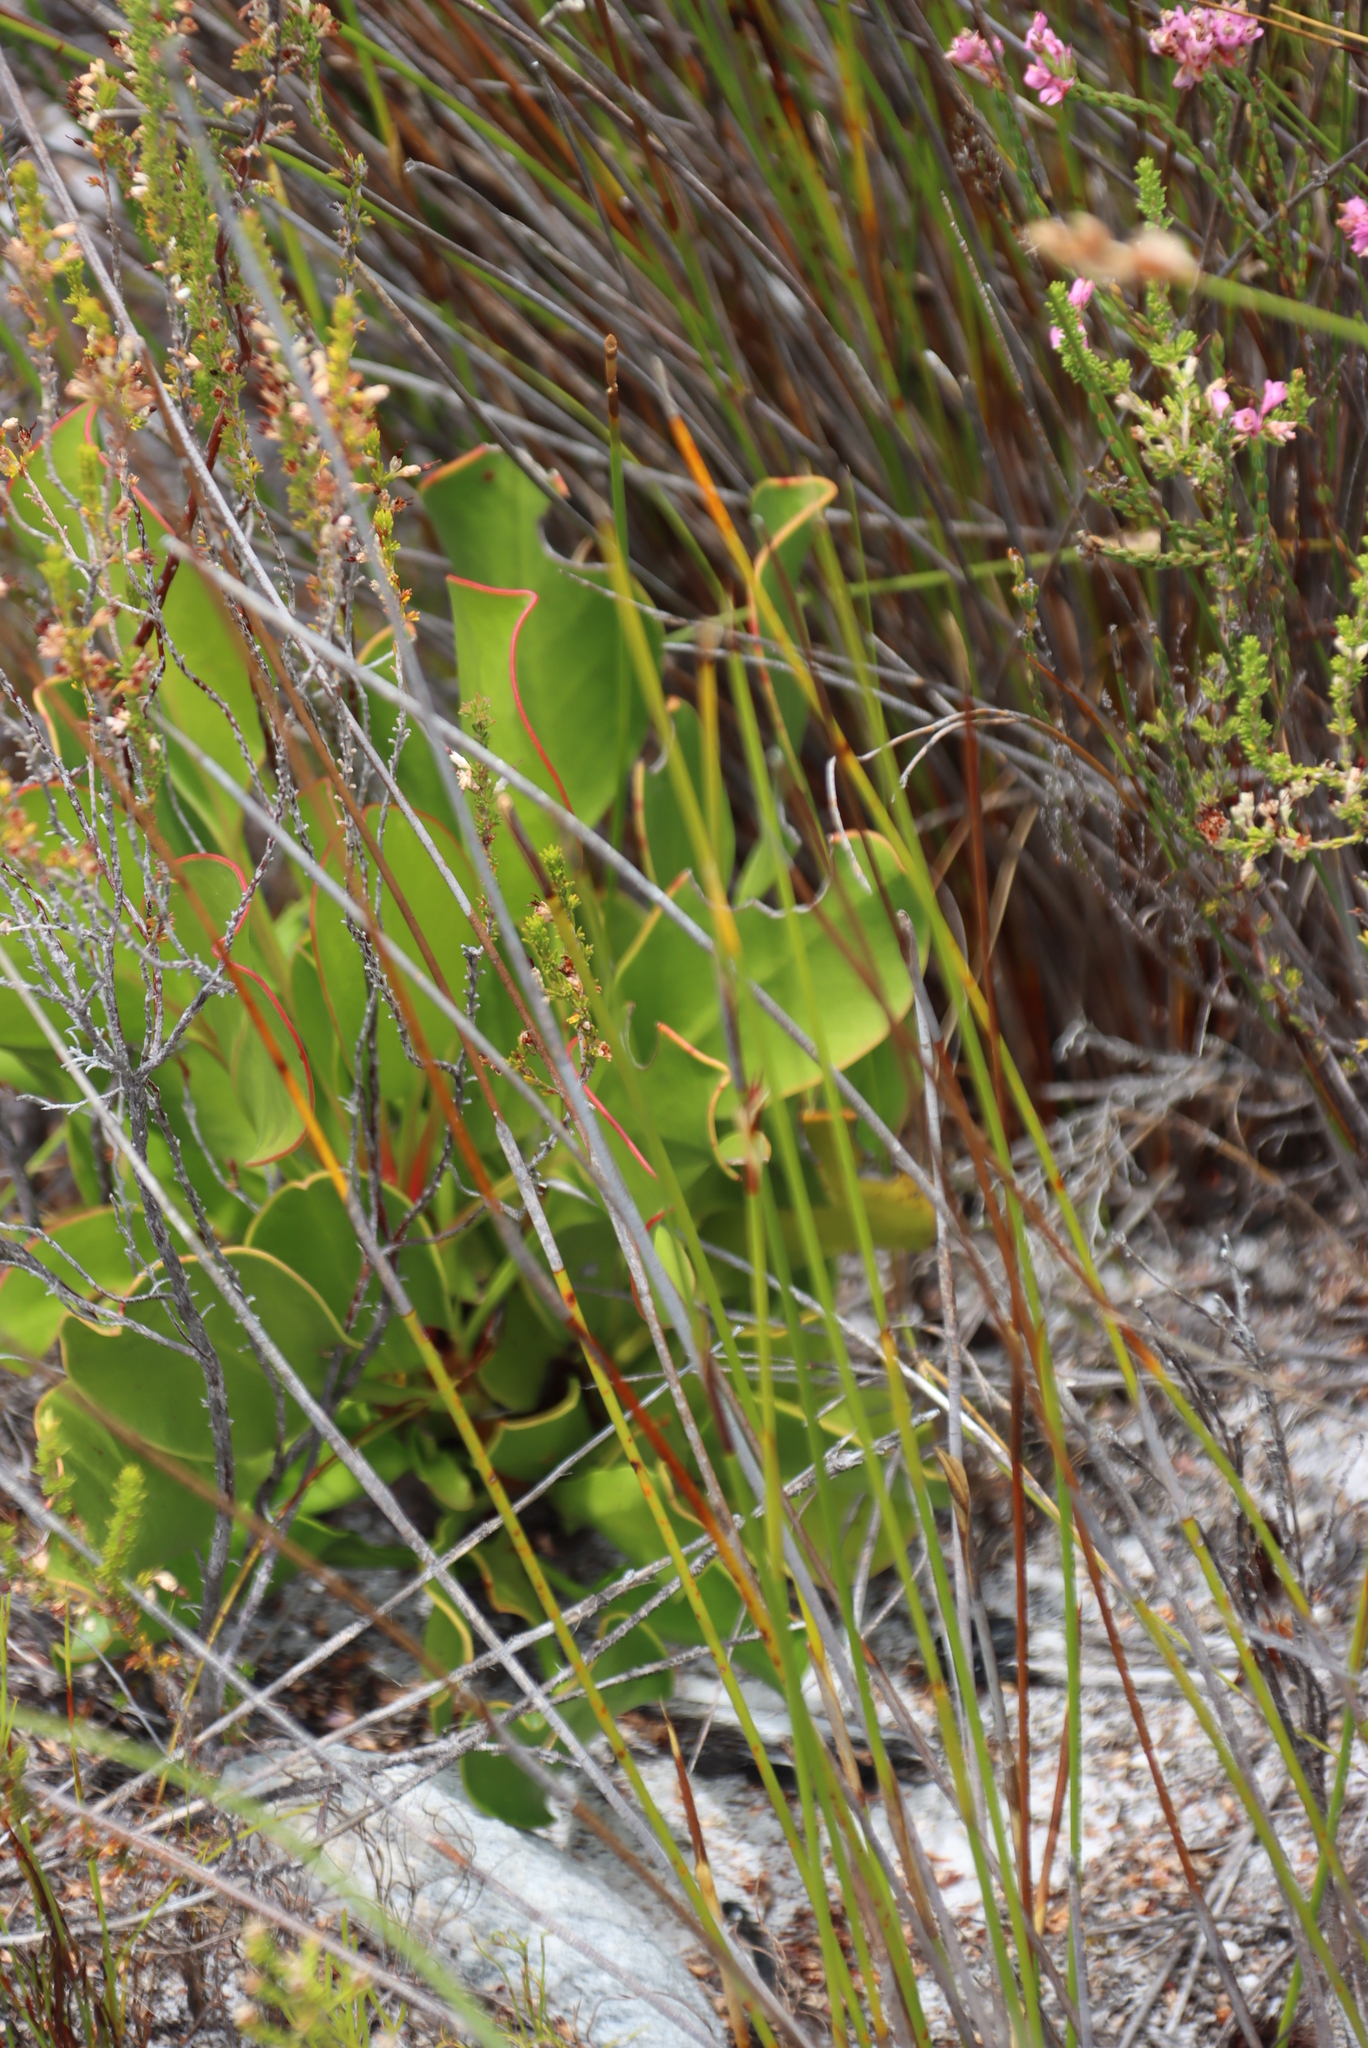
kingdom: Plantae
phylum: Tracheophyta
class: Magnoliopsida
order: Proteales
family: Proteaceae
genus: Protea
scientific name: Protea cynaroides
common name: King protea
